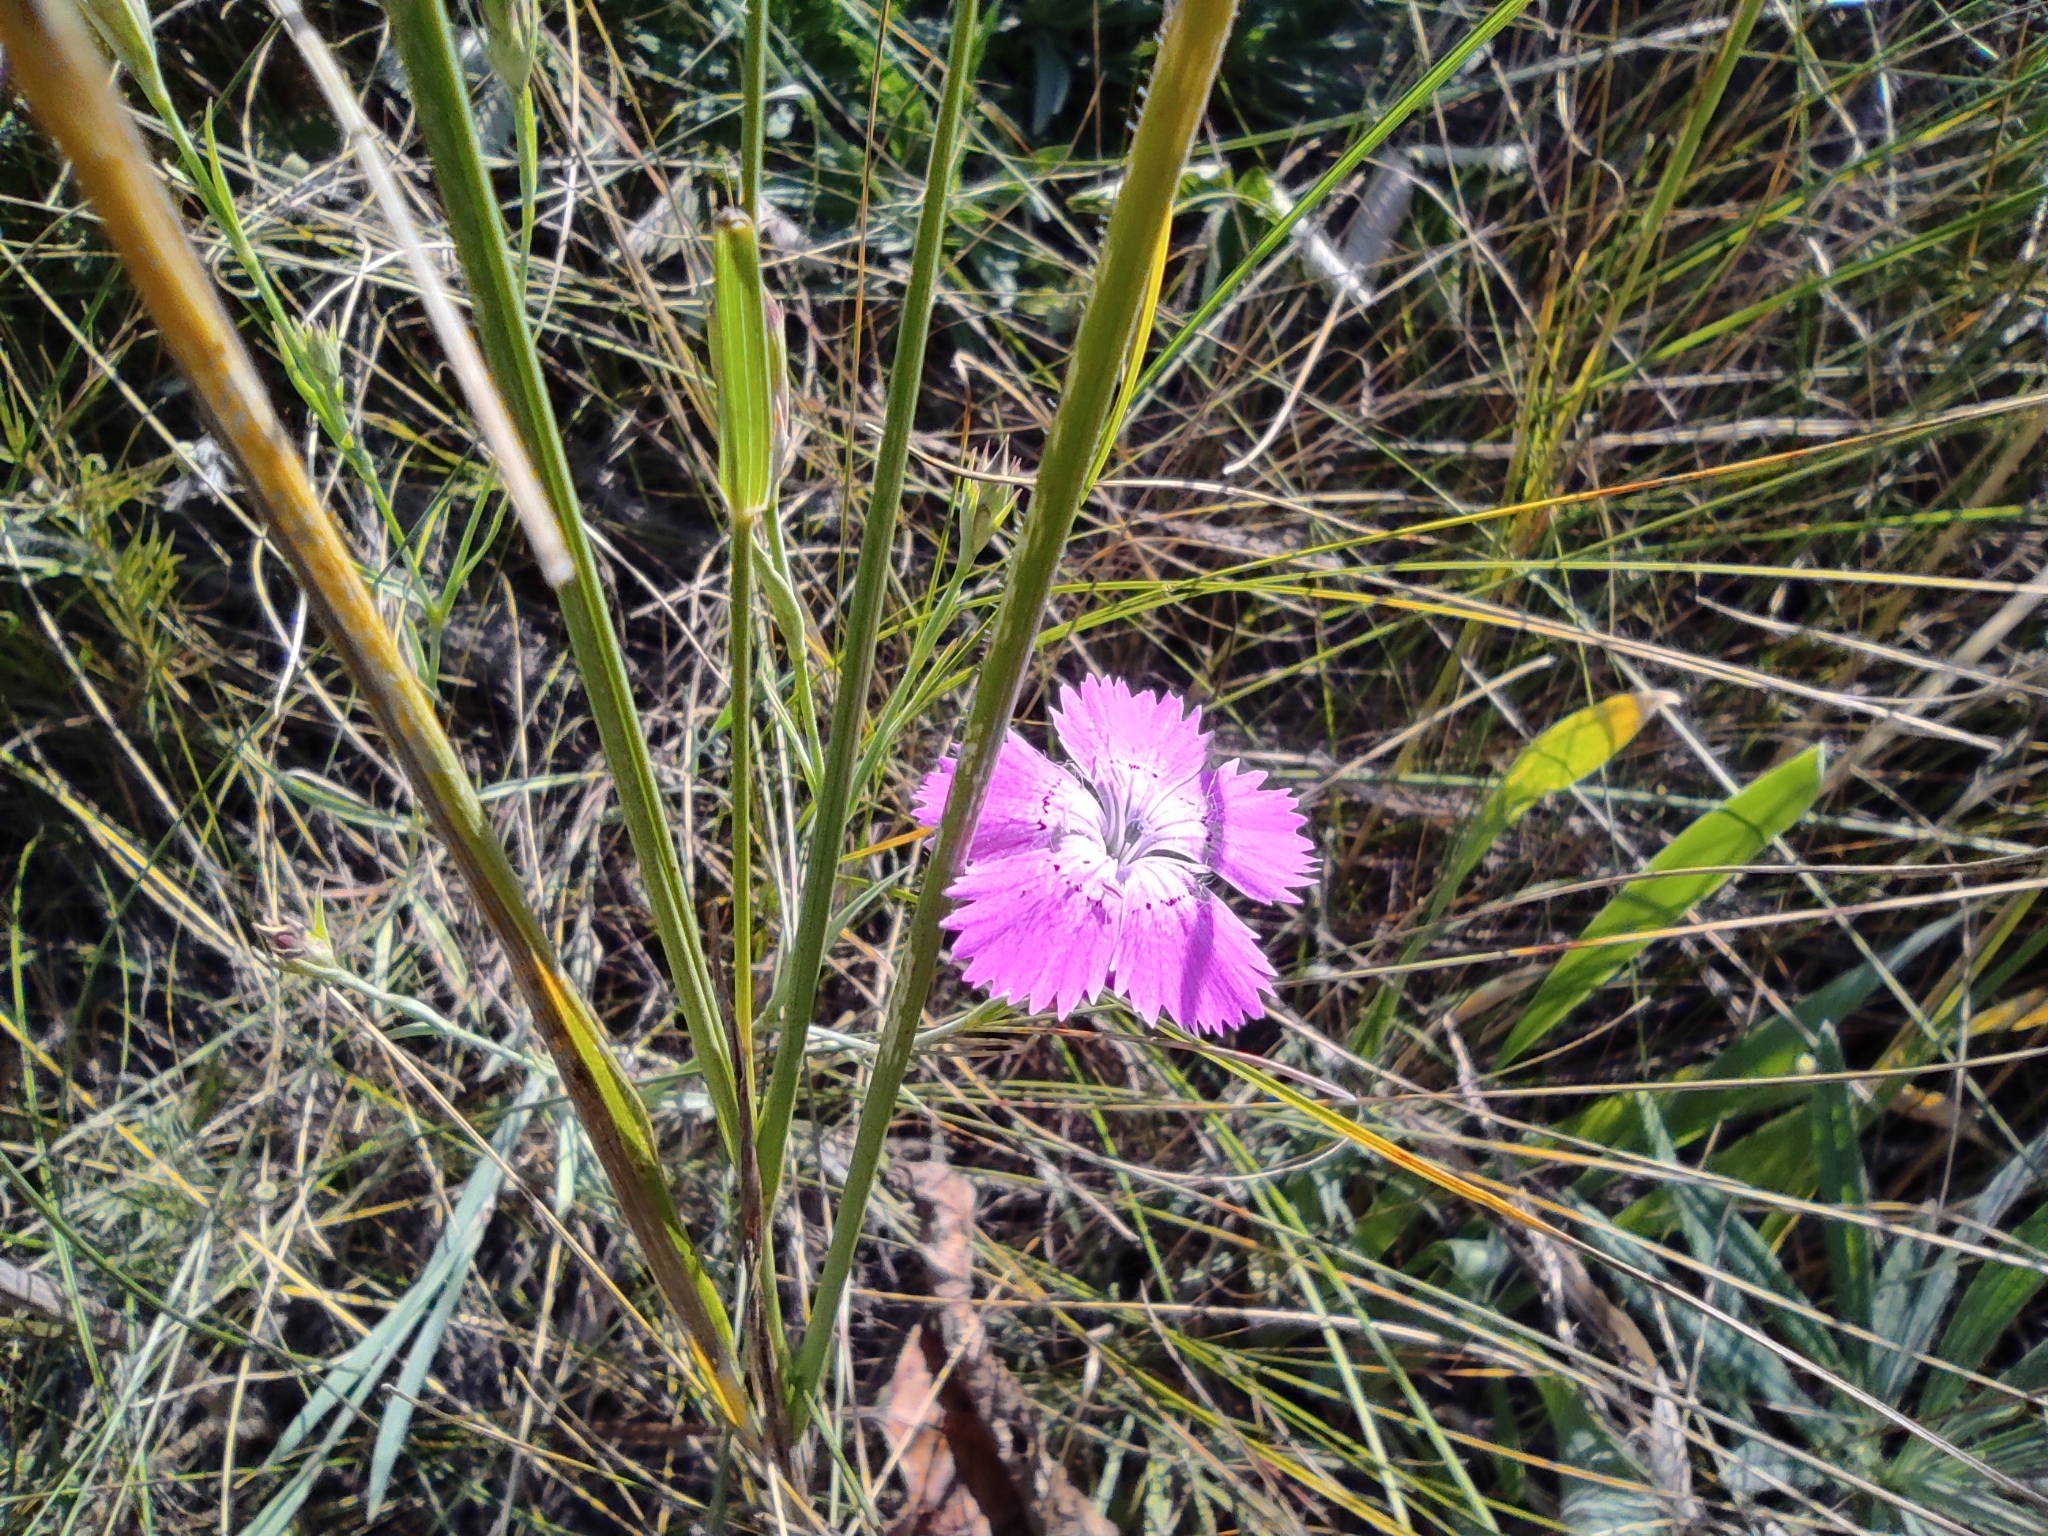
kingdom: Plantae
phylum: Tracheophyta
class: Magnoliopsida
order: Caryophyllales
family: Caryophyllaceae
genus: Dianthus
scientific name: Dianthus chinensis
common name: Rainbow pink
